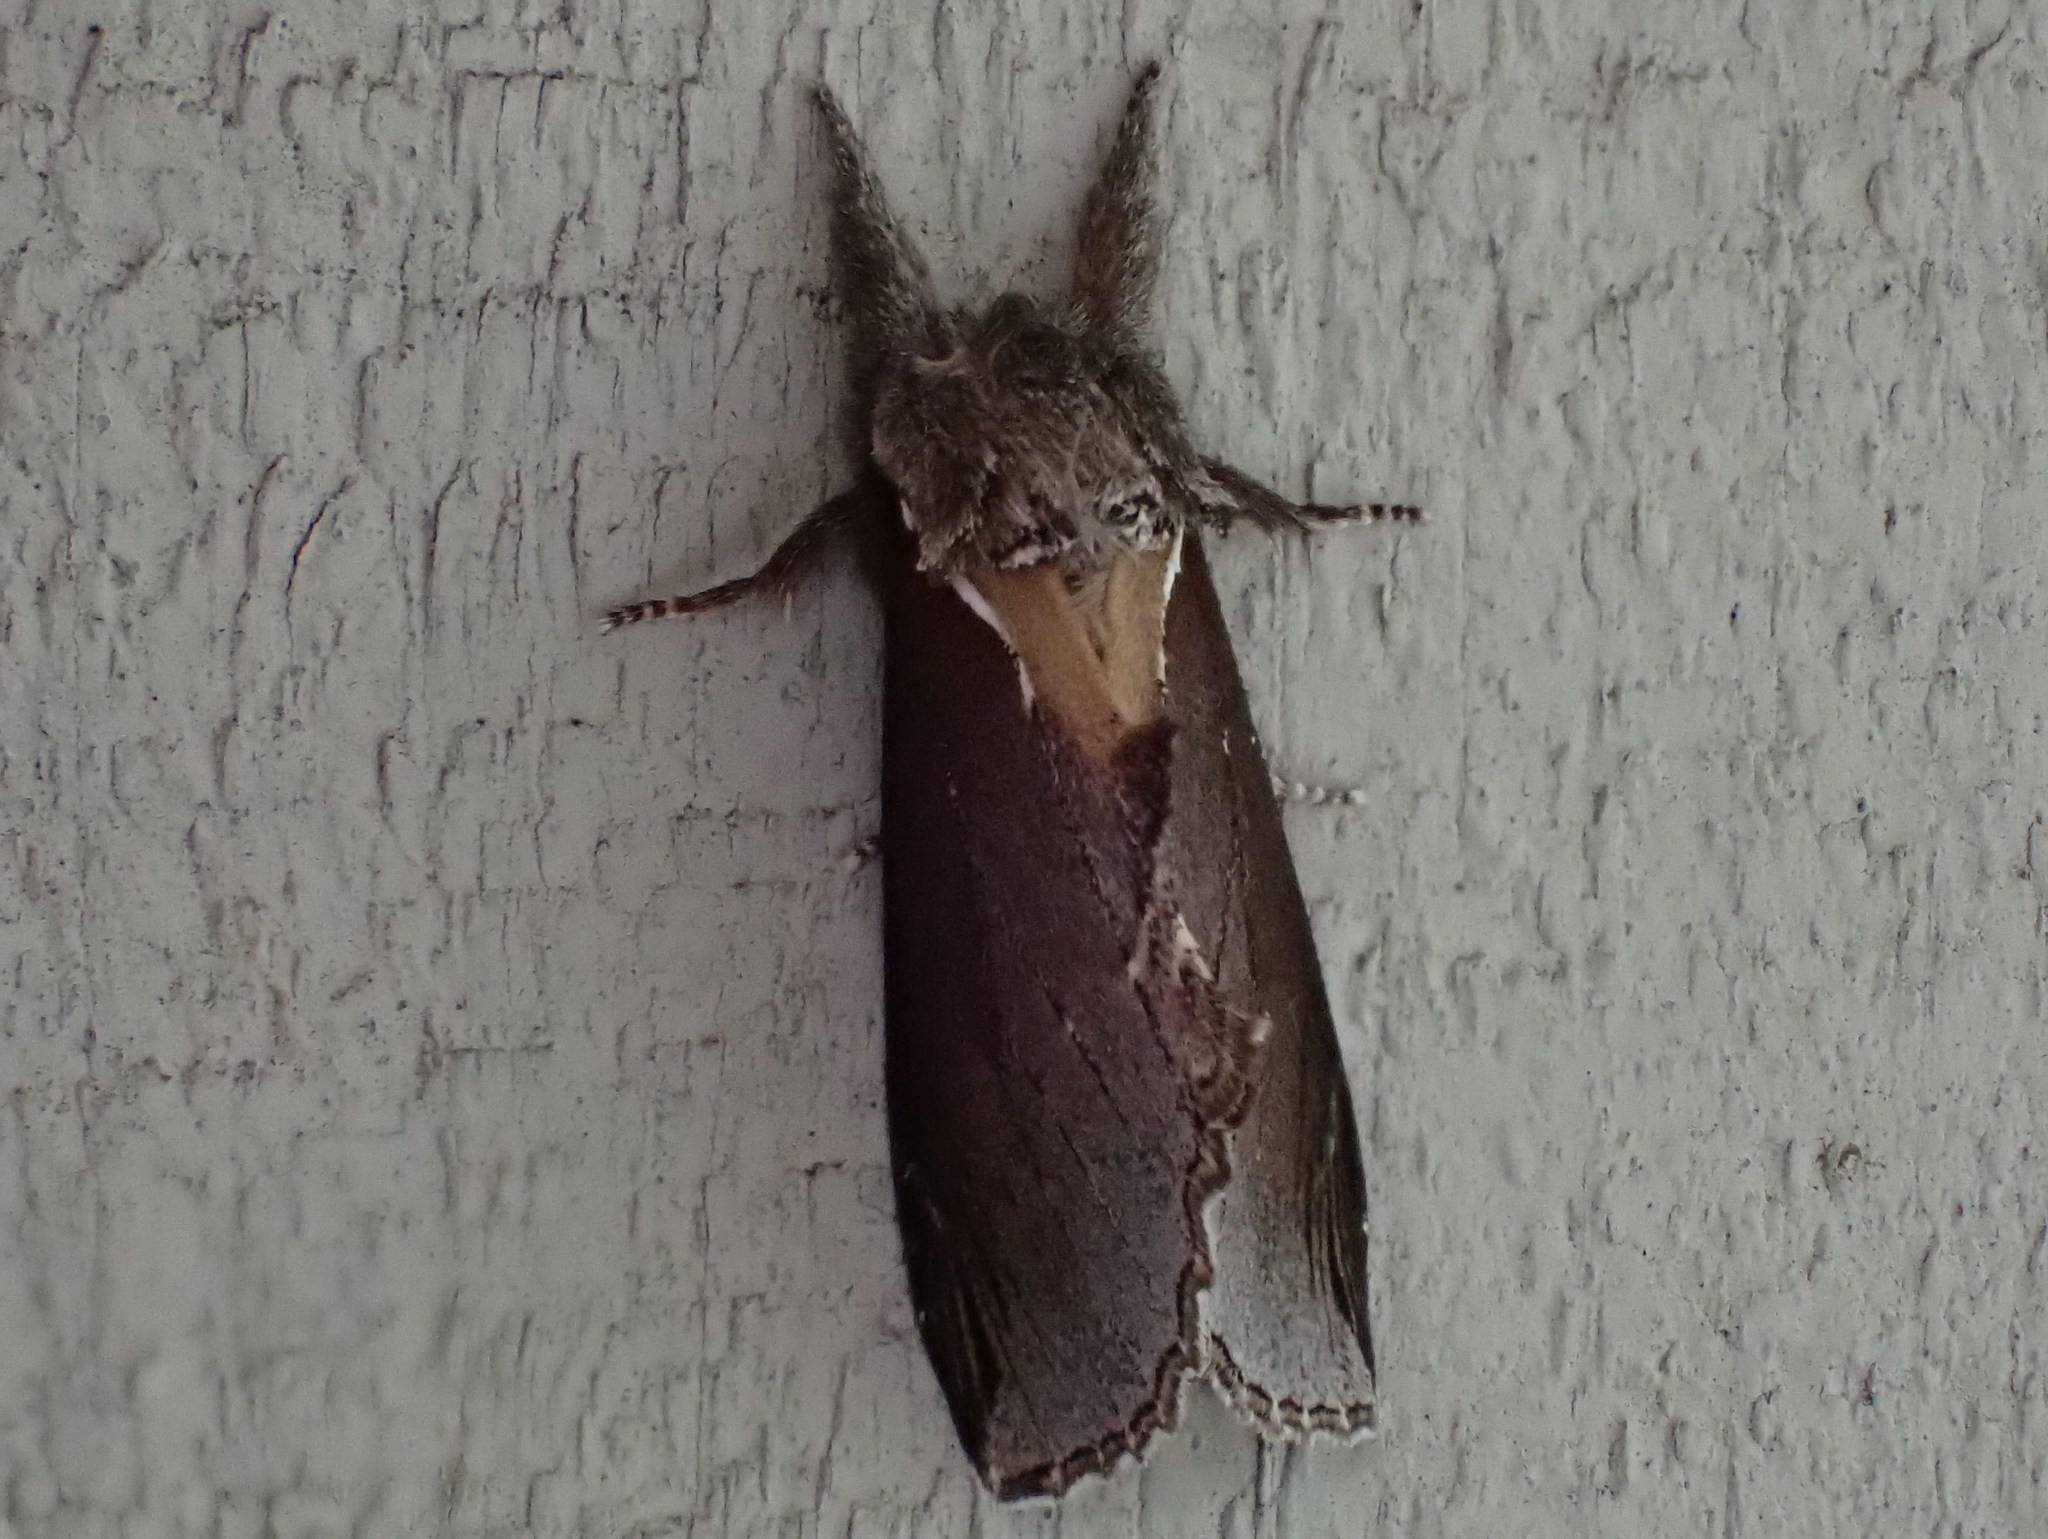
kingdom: Animalia
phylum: Arthropoda
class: Insecta
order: Lepidoptera
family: Notodontidae
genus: Pheosidea
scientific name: Pheosidea elegans
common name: Elegant prominent
